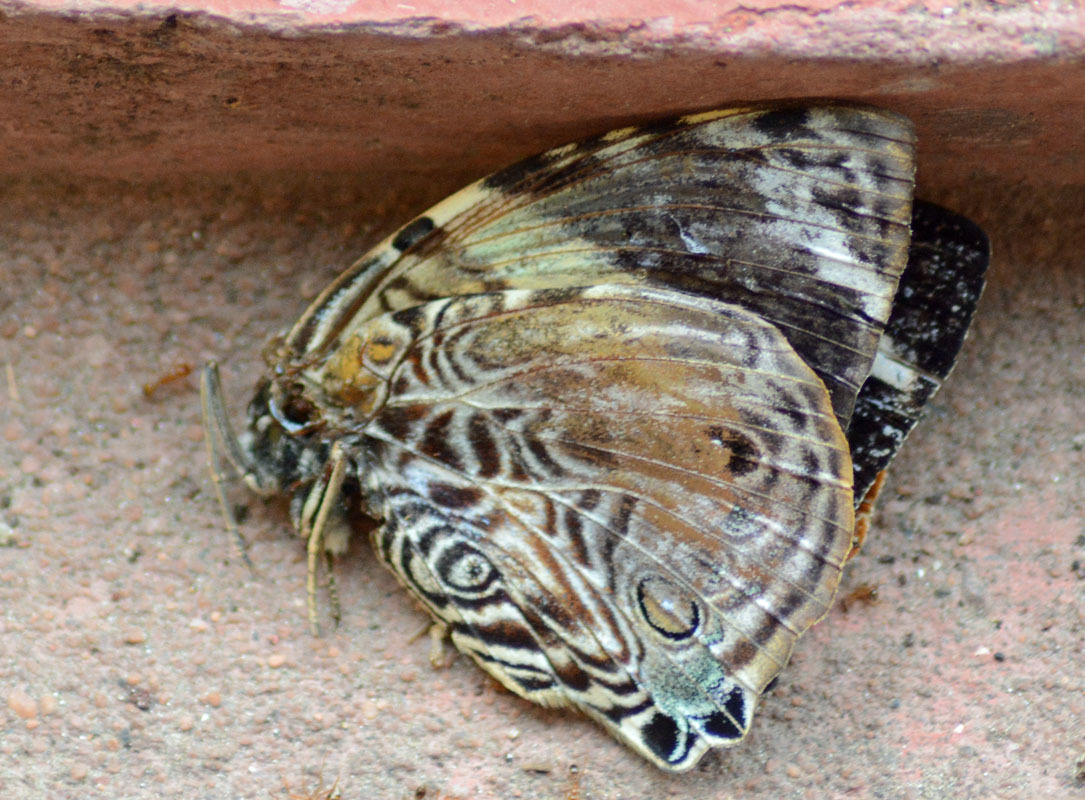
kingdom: Animalia
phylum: Arthropoda
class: Insecta
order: Lepidoptera
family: Nymphalidae
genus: Smyrna
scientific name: Smyrna blomfildia
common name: Blomfild's beauty
